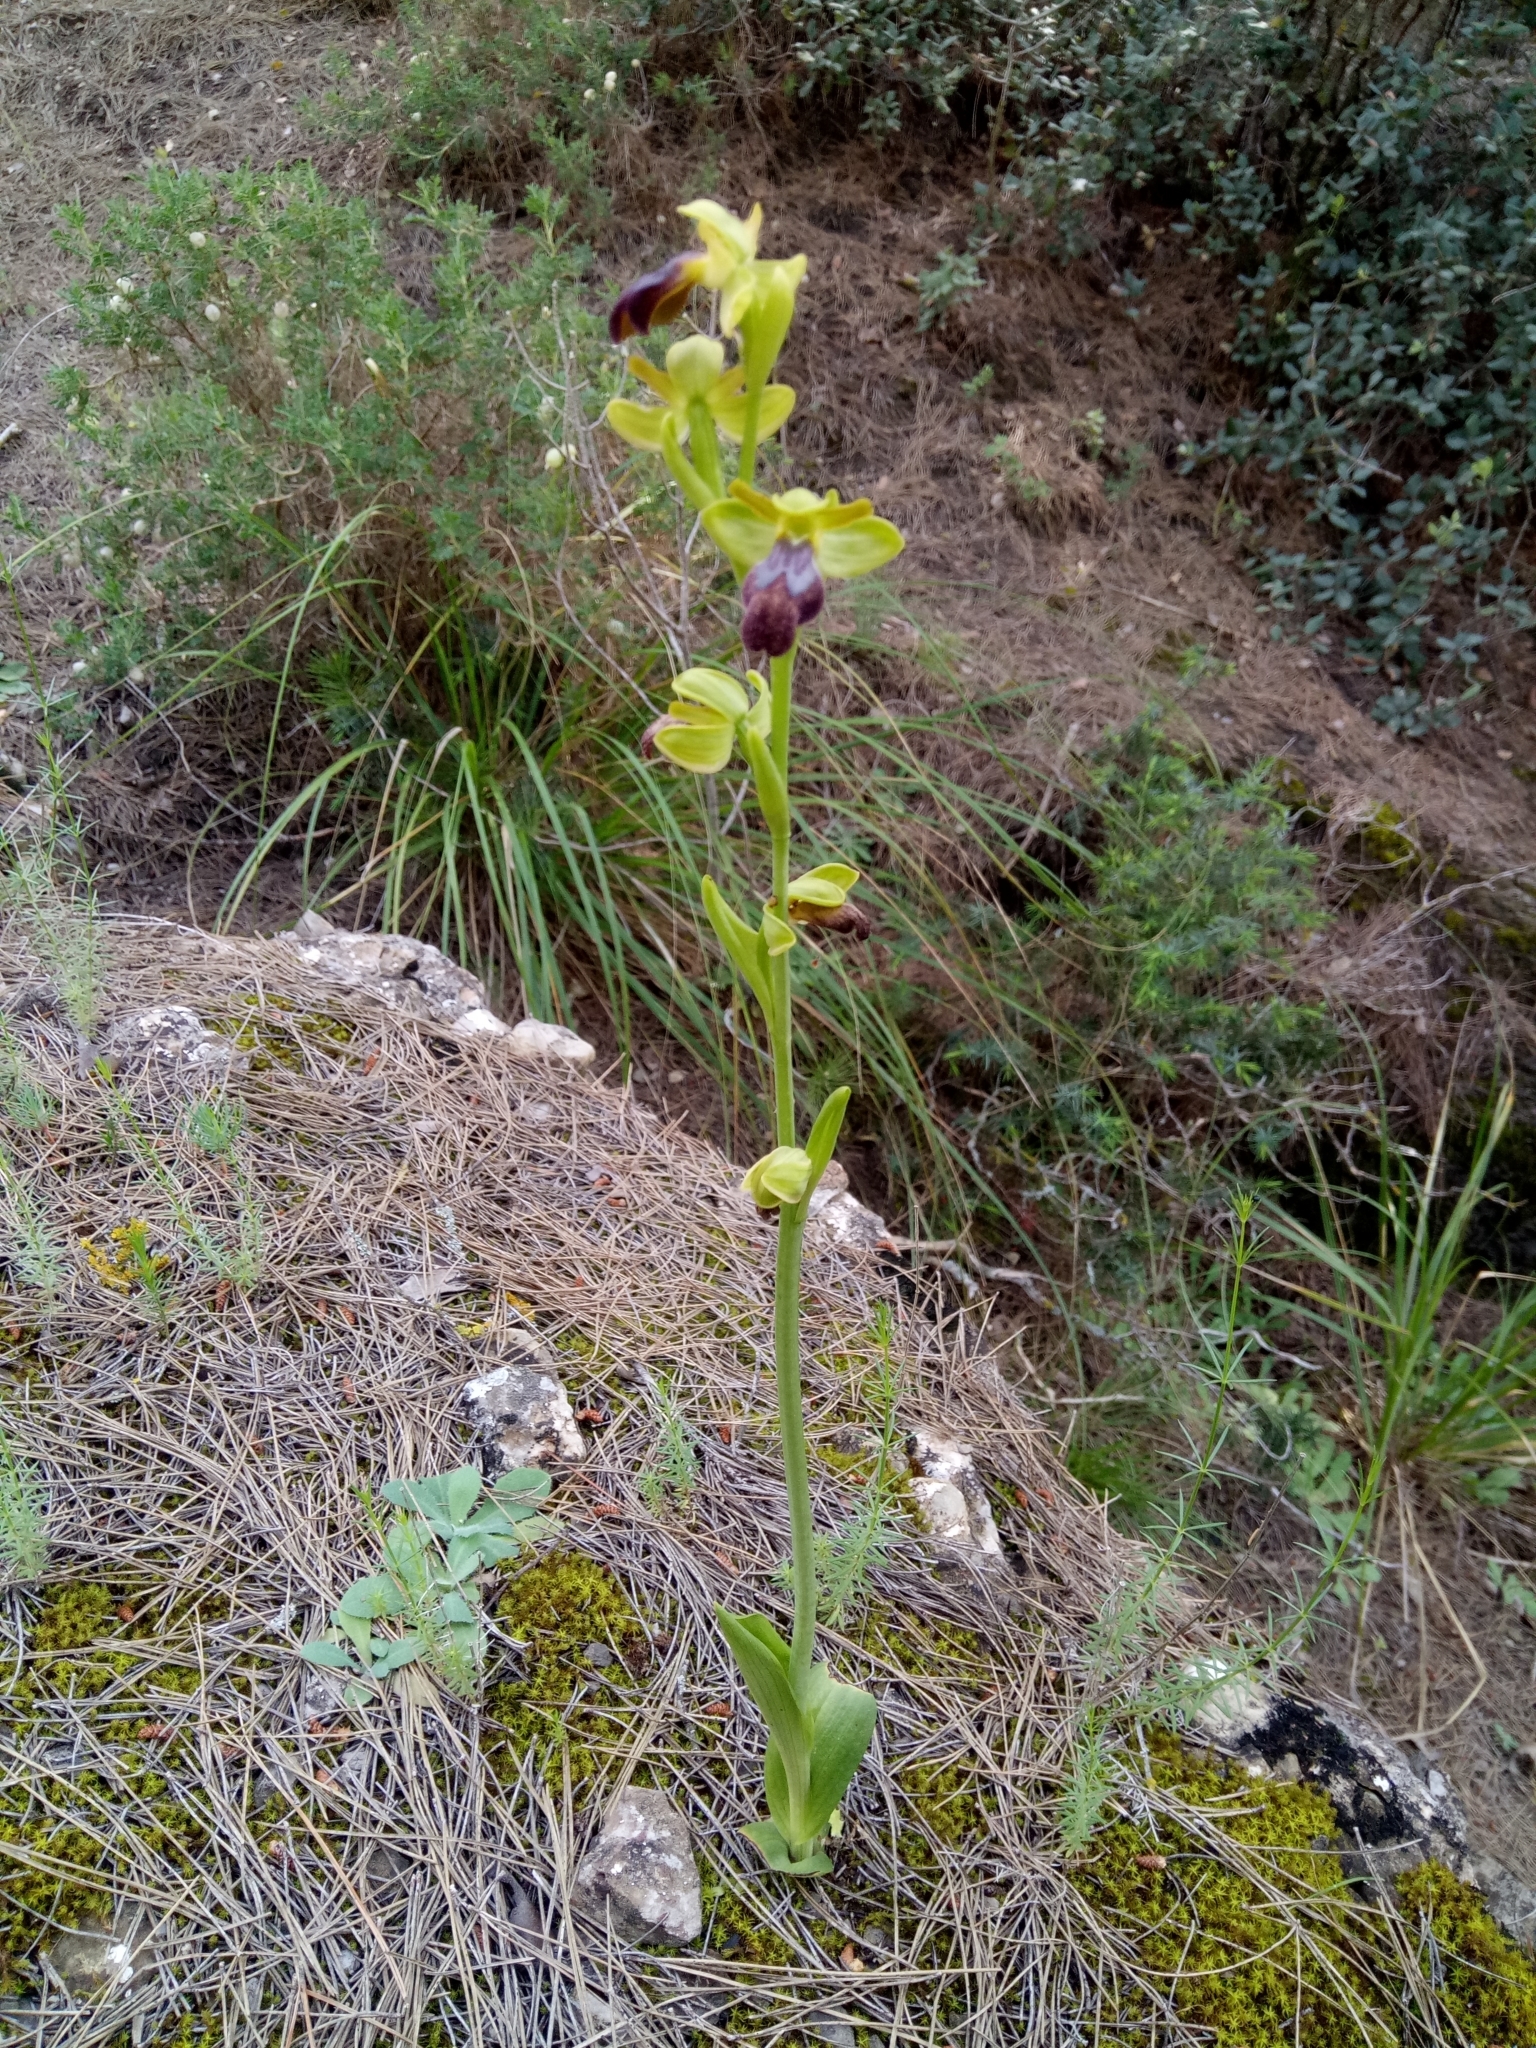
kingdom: Plantae
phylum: Tracheophyta
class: Liliopsida
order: Asparagales
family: Orchidaceae
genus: Ophrys
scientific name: Ophrys fusca
